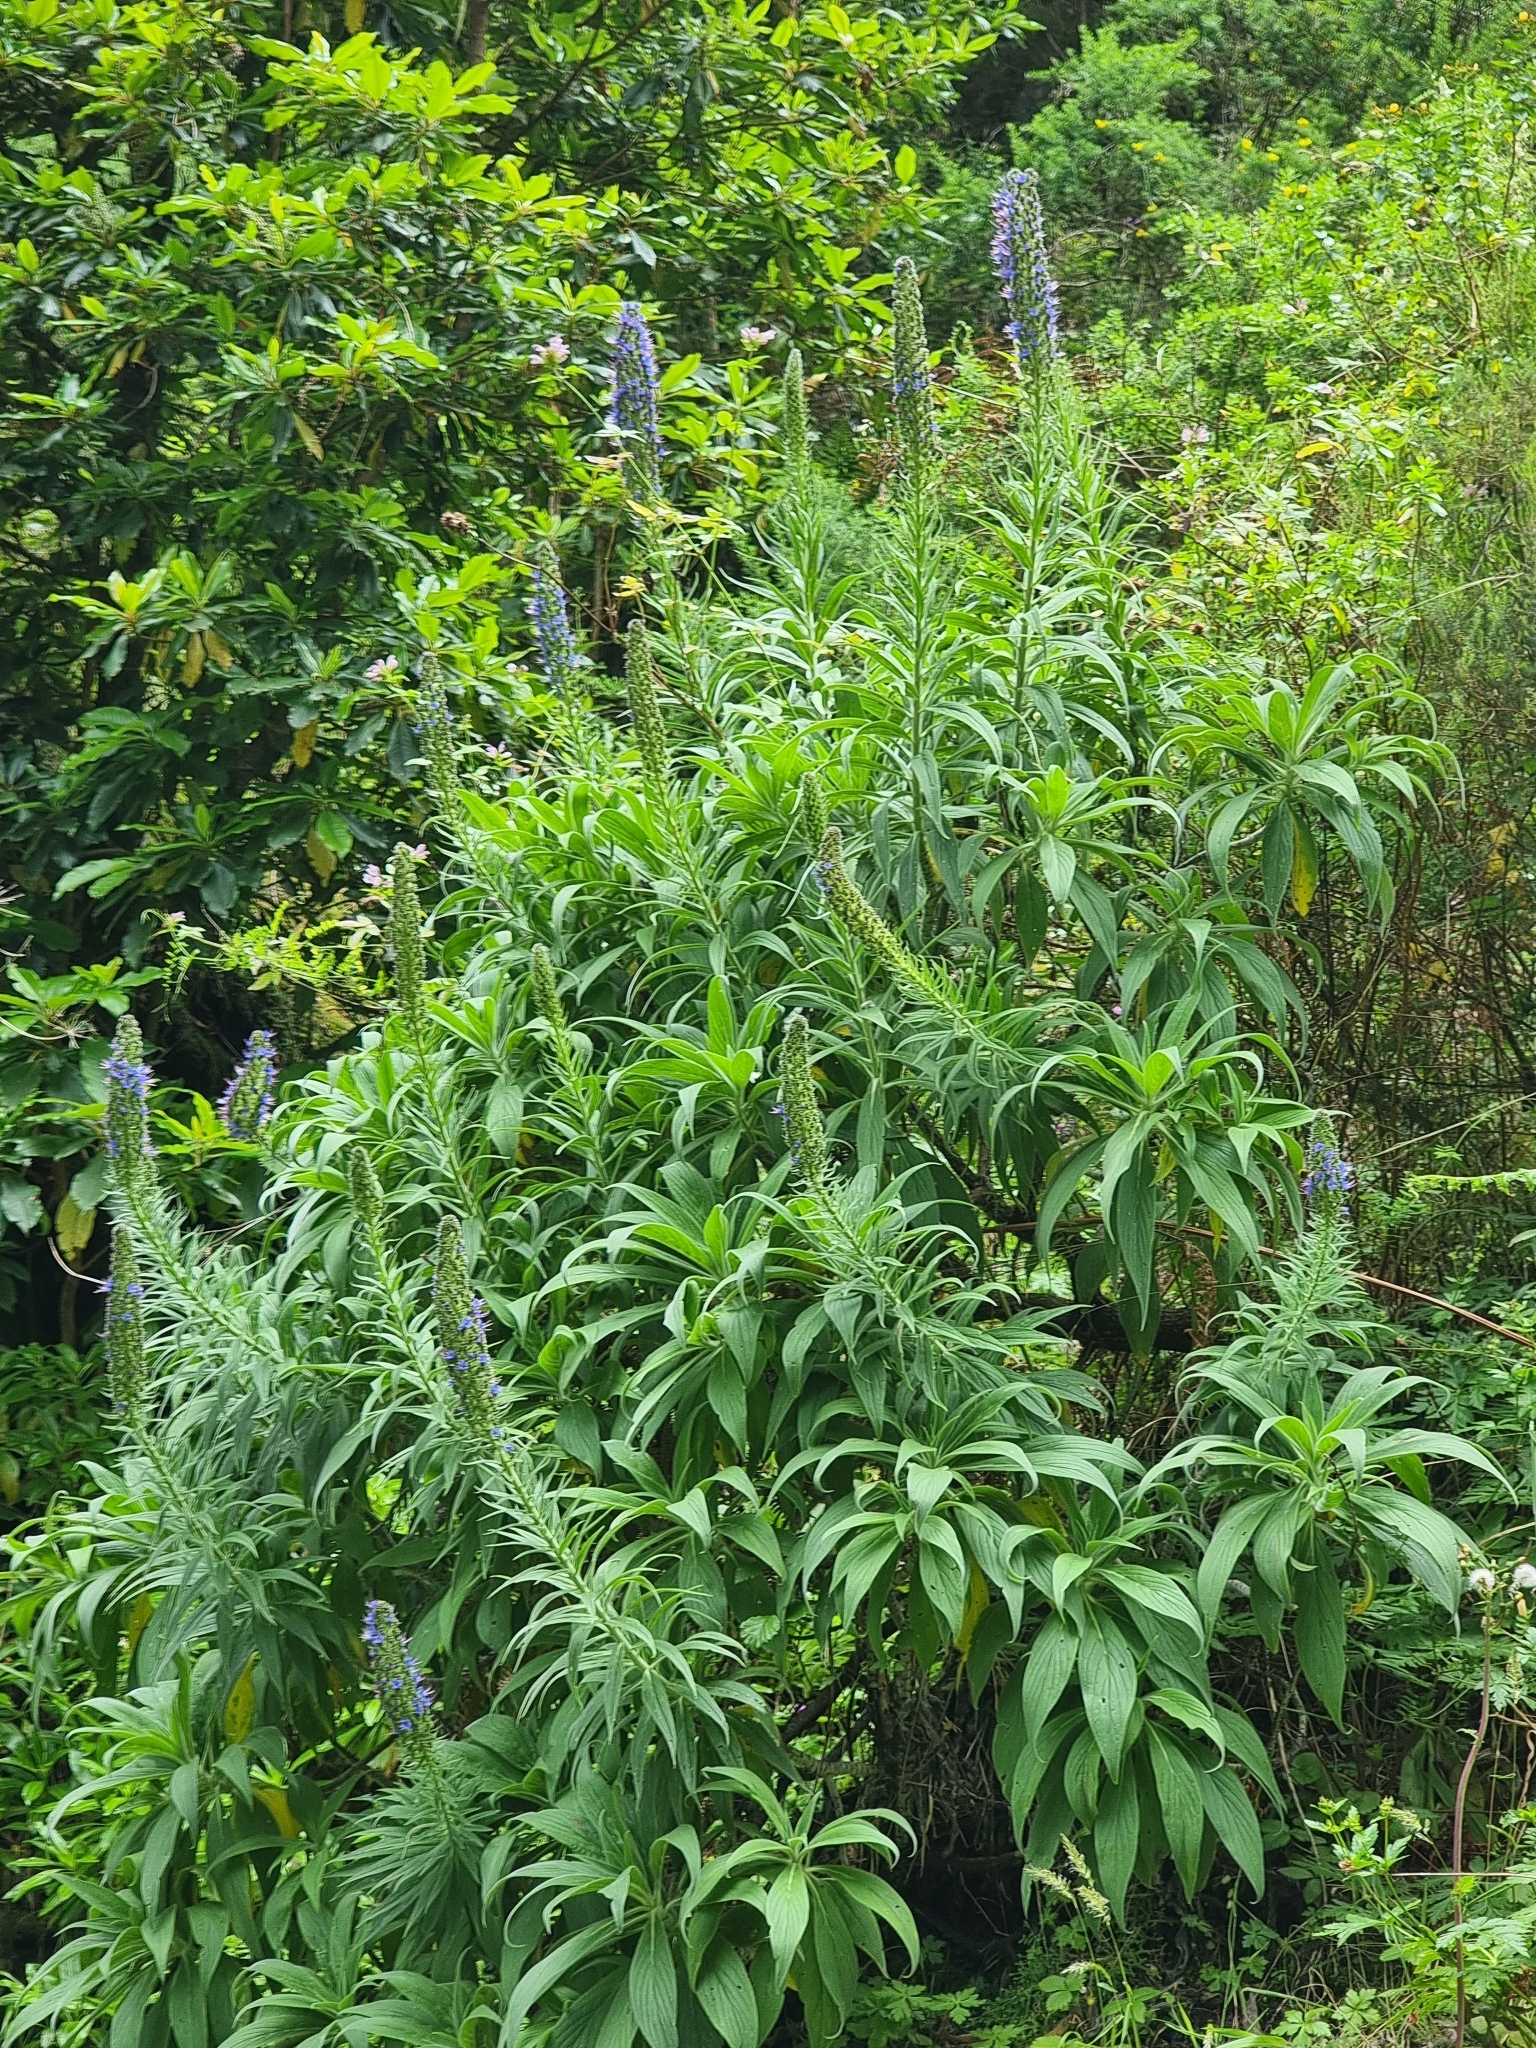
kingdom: Plantae
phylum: Tracheophyta
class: Magnoliopsida
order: Boraginales
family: Boraginaceae
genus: Echium
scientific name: Echium candicans
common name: Pride of madeira
